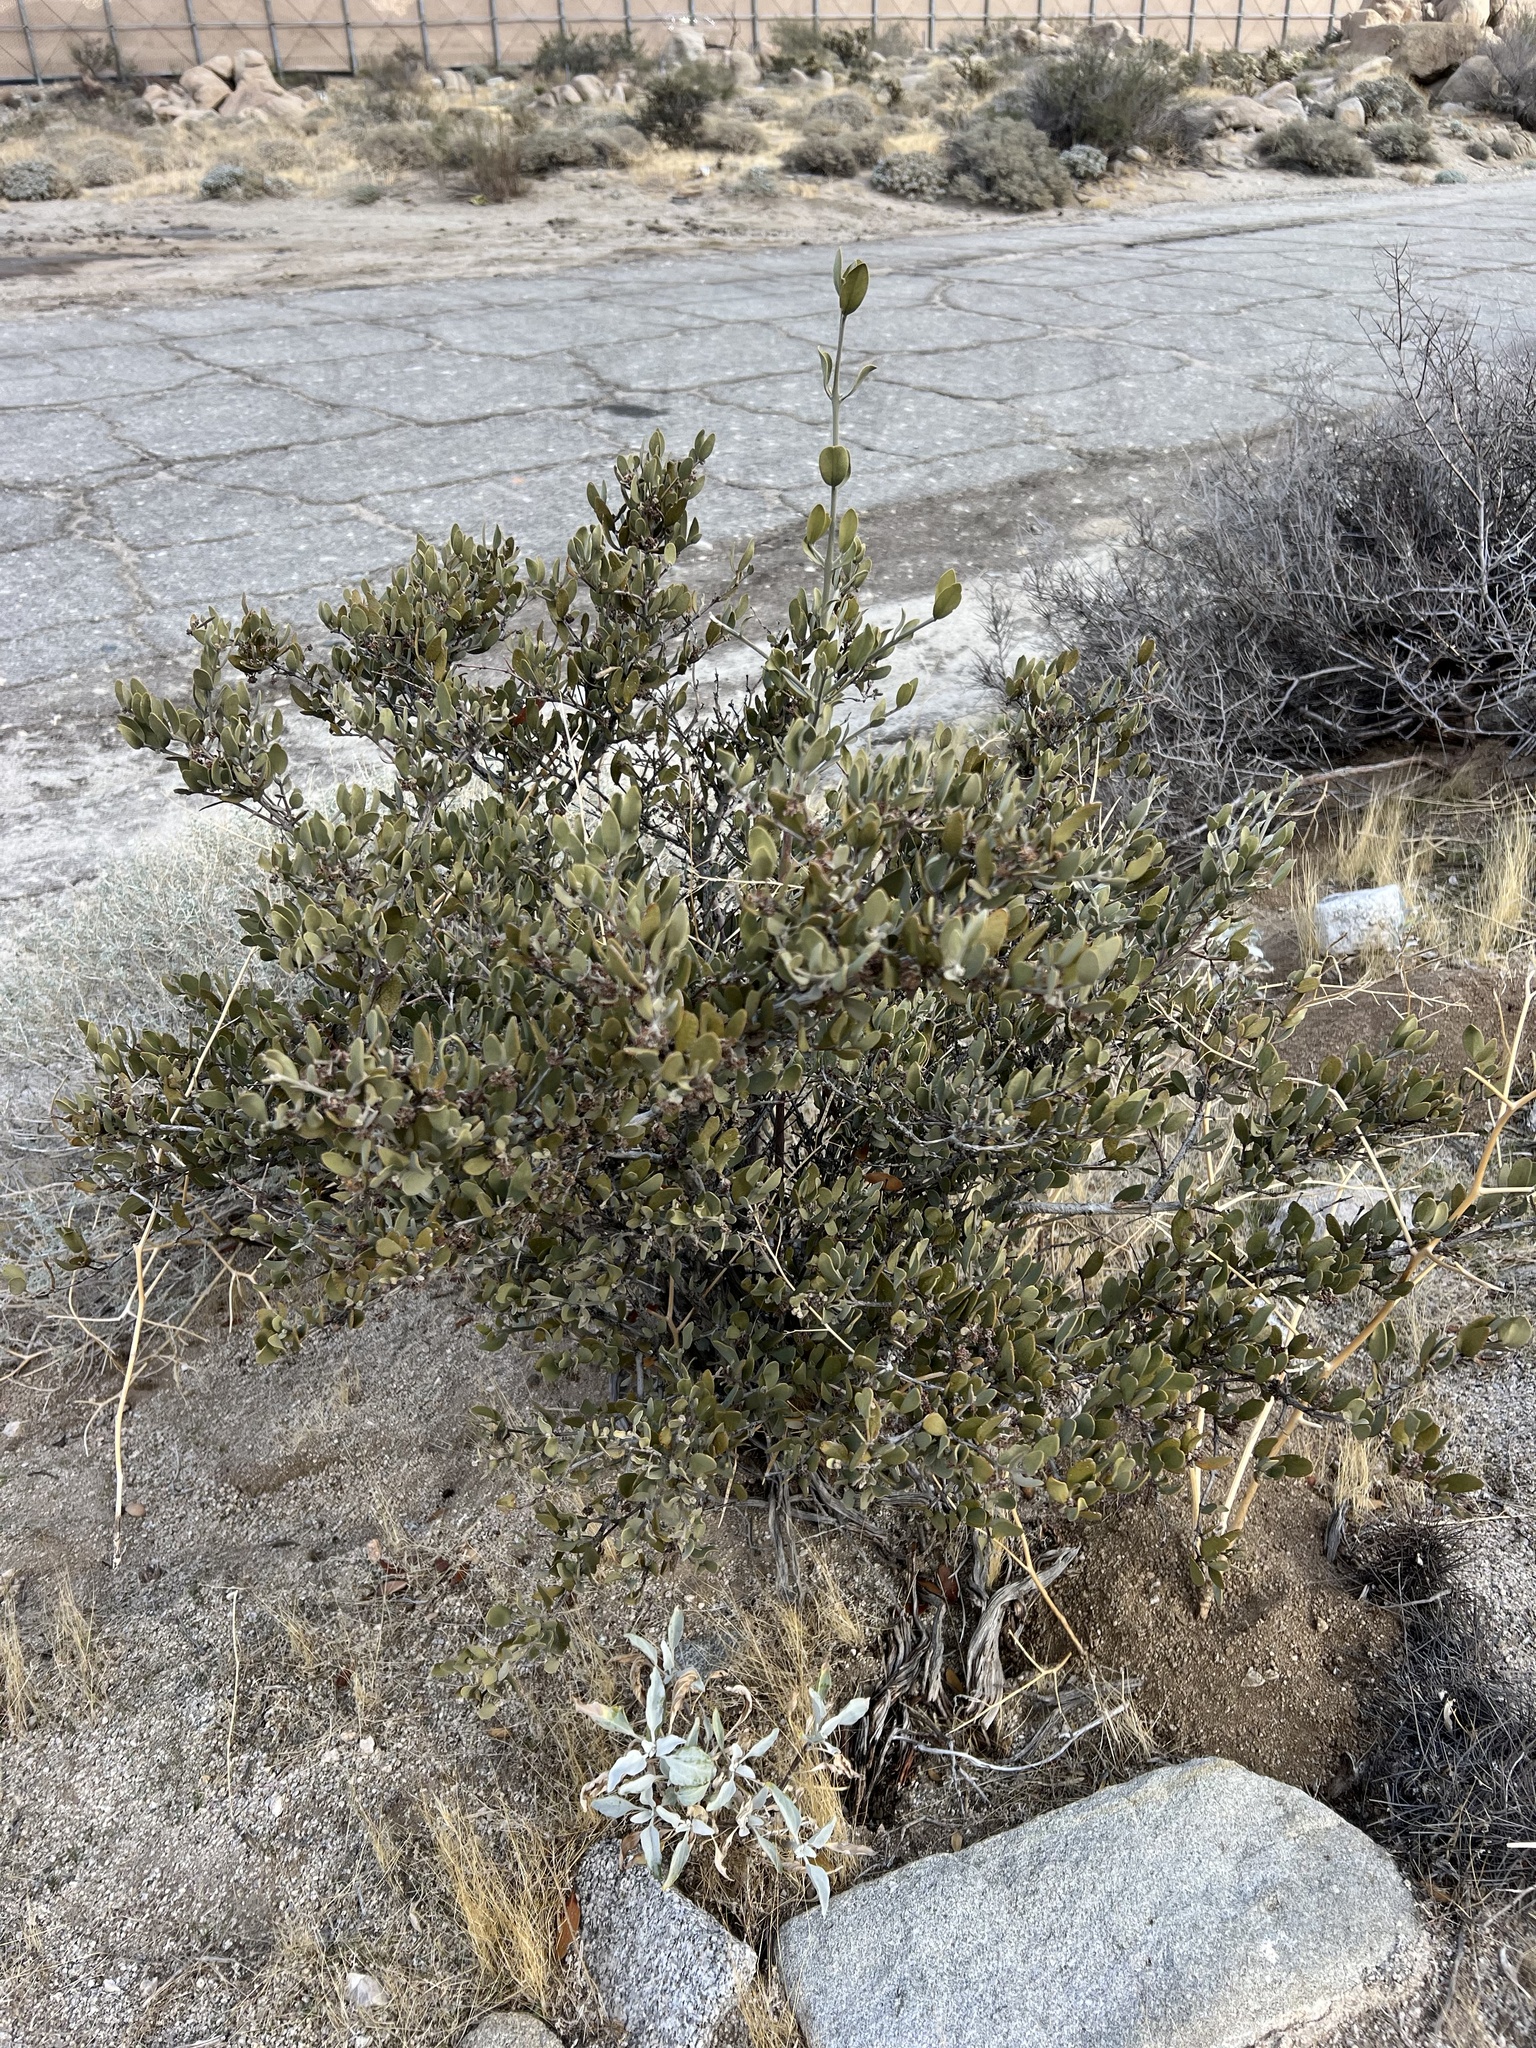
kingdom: Plantae
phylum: Tracheophyta
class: Magnoliopsida
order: Caryophyllales
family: Simmondsiaceae
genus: Simmondsia
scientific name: Simmondsia chinensis
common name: Jojoba
